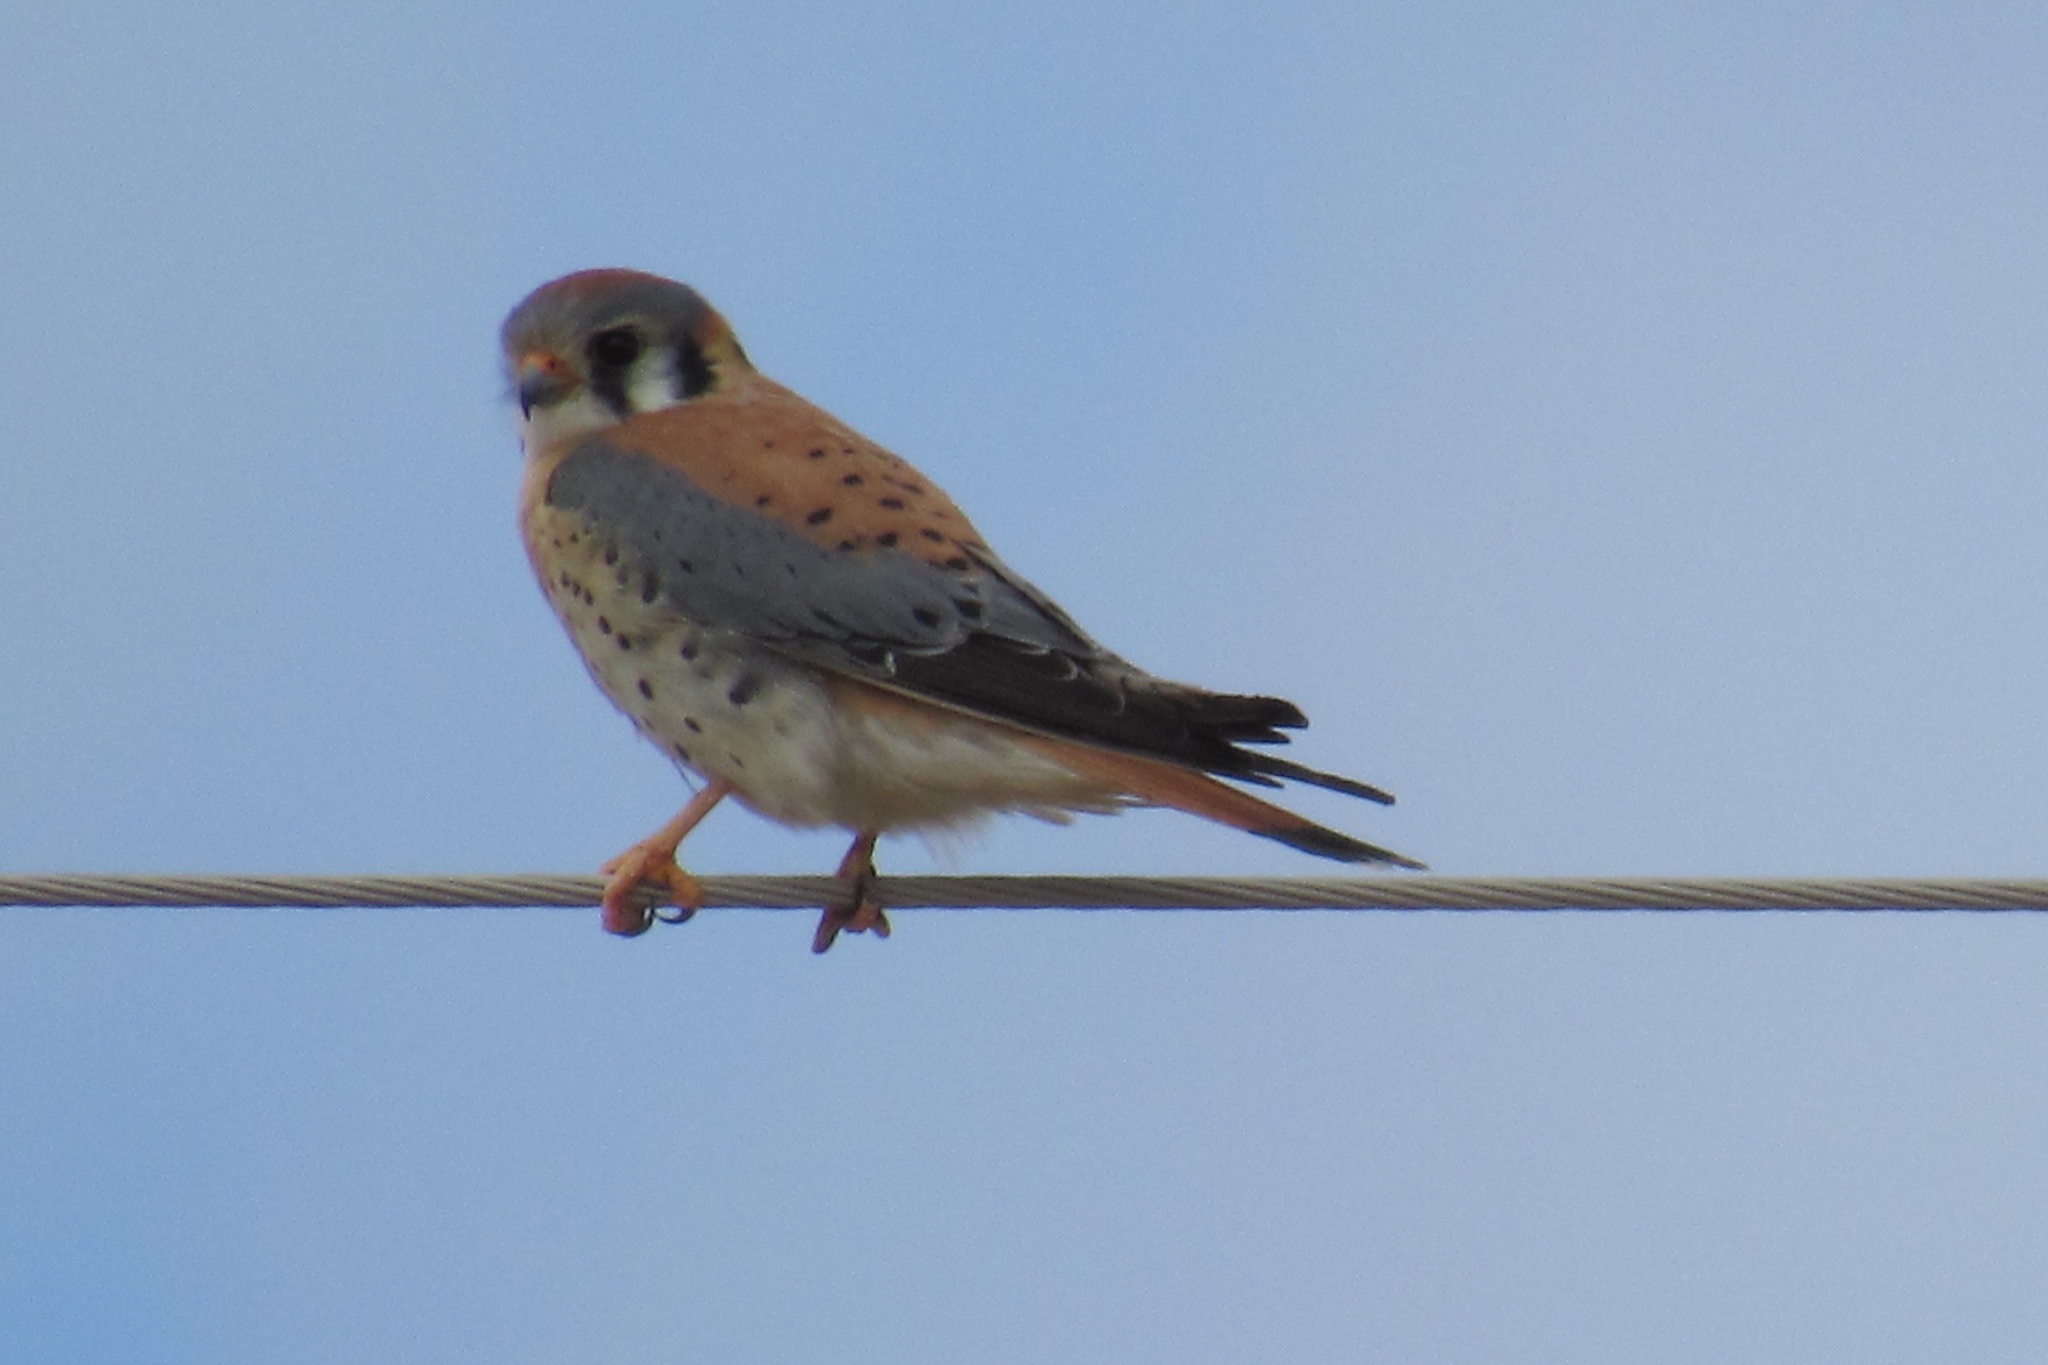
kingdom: Animalia
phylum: Chordata
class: Aves
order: Falconiformes
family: Falconidae
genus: Falco
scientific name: Falco sparverius
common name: American kestrel
